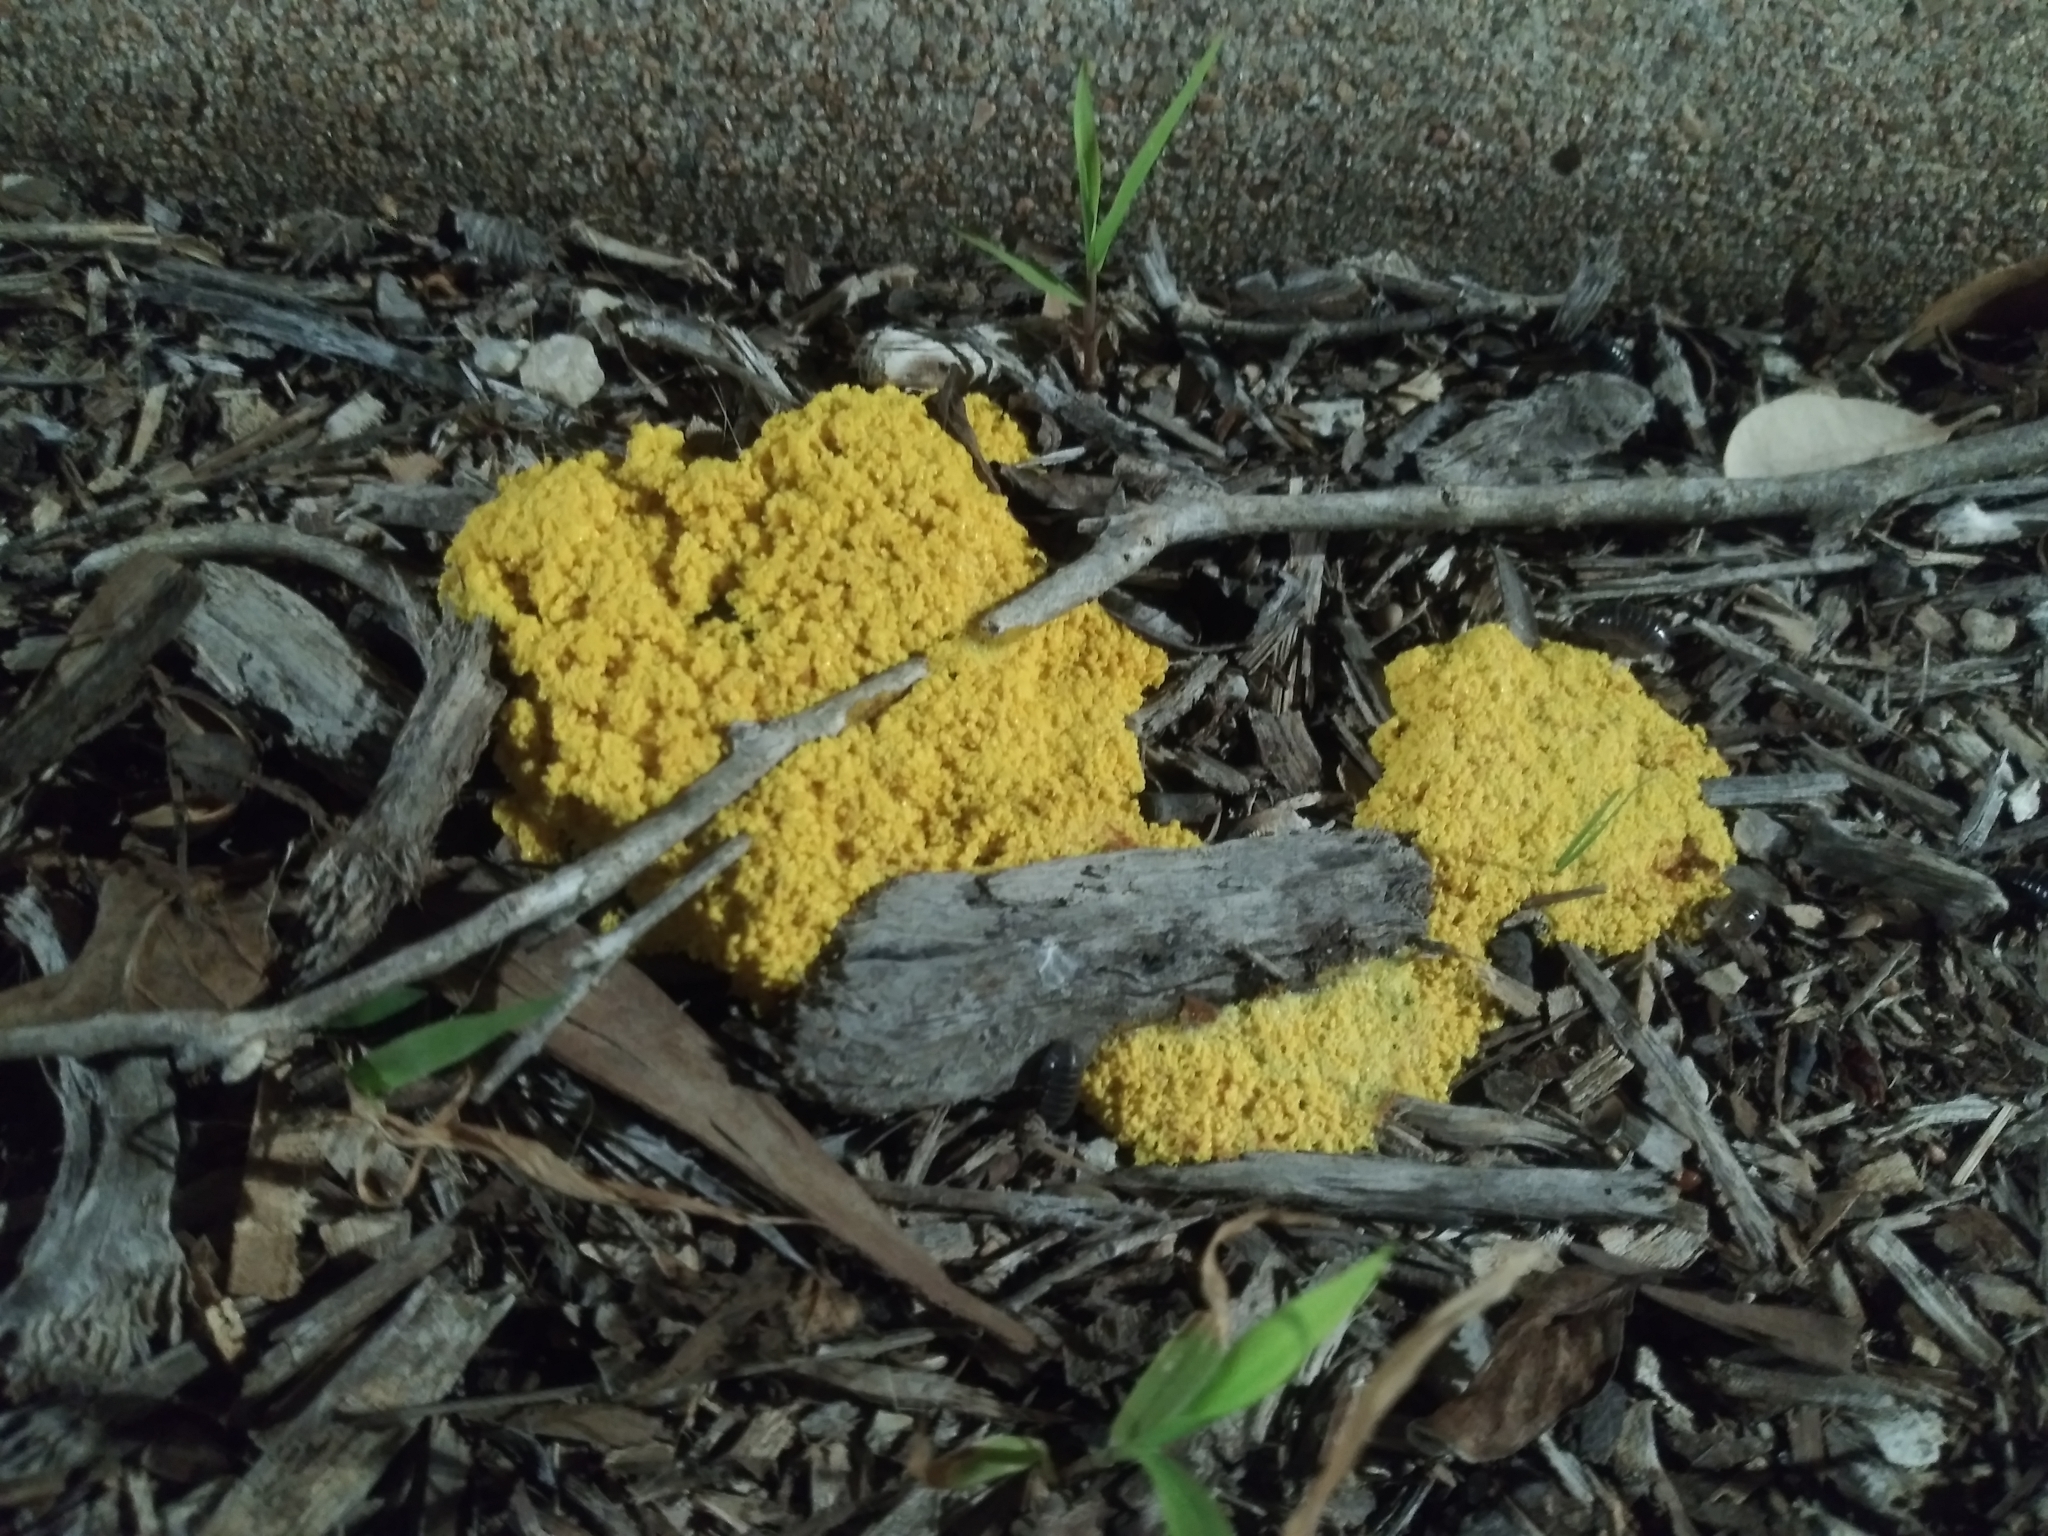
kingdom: Protozoa
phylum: Mycetozoa
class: Myxomycetes
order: Physarales
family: Physaraceae
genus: Fuligo
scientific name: Fuligo septica
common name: Dog vomit slime mold
